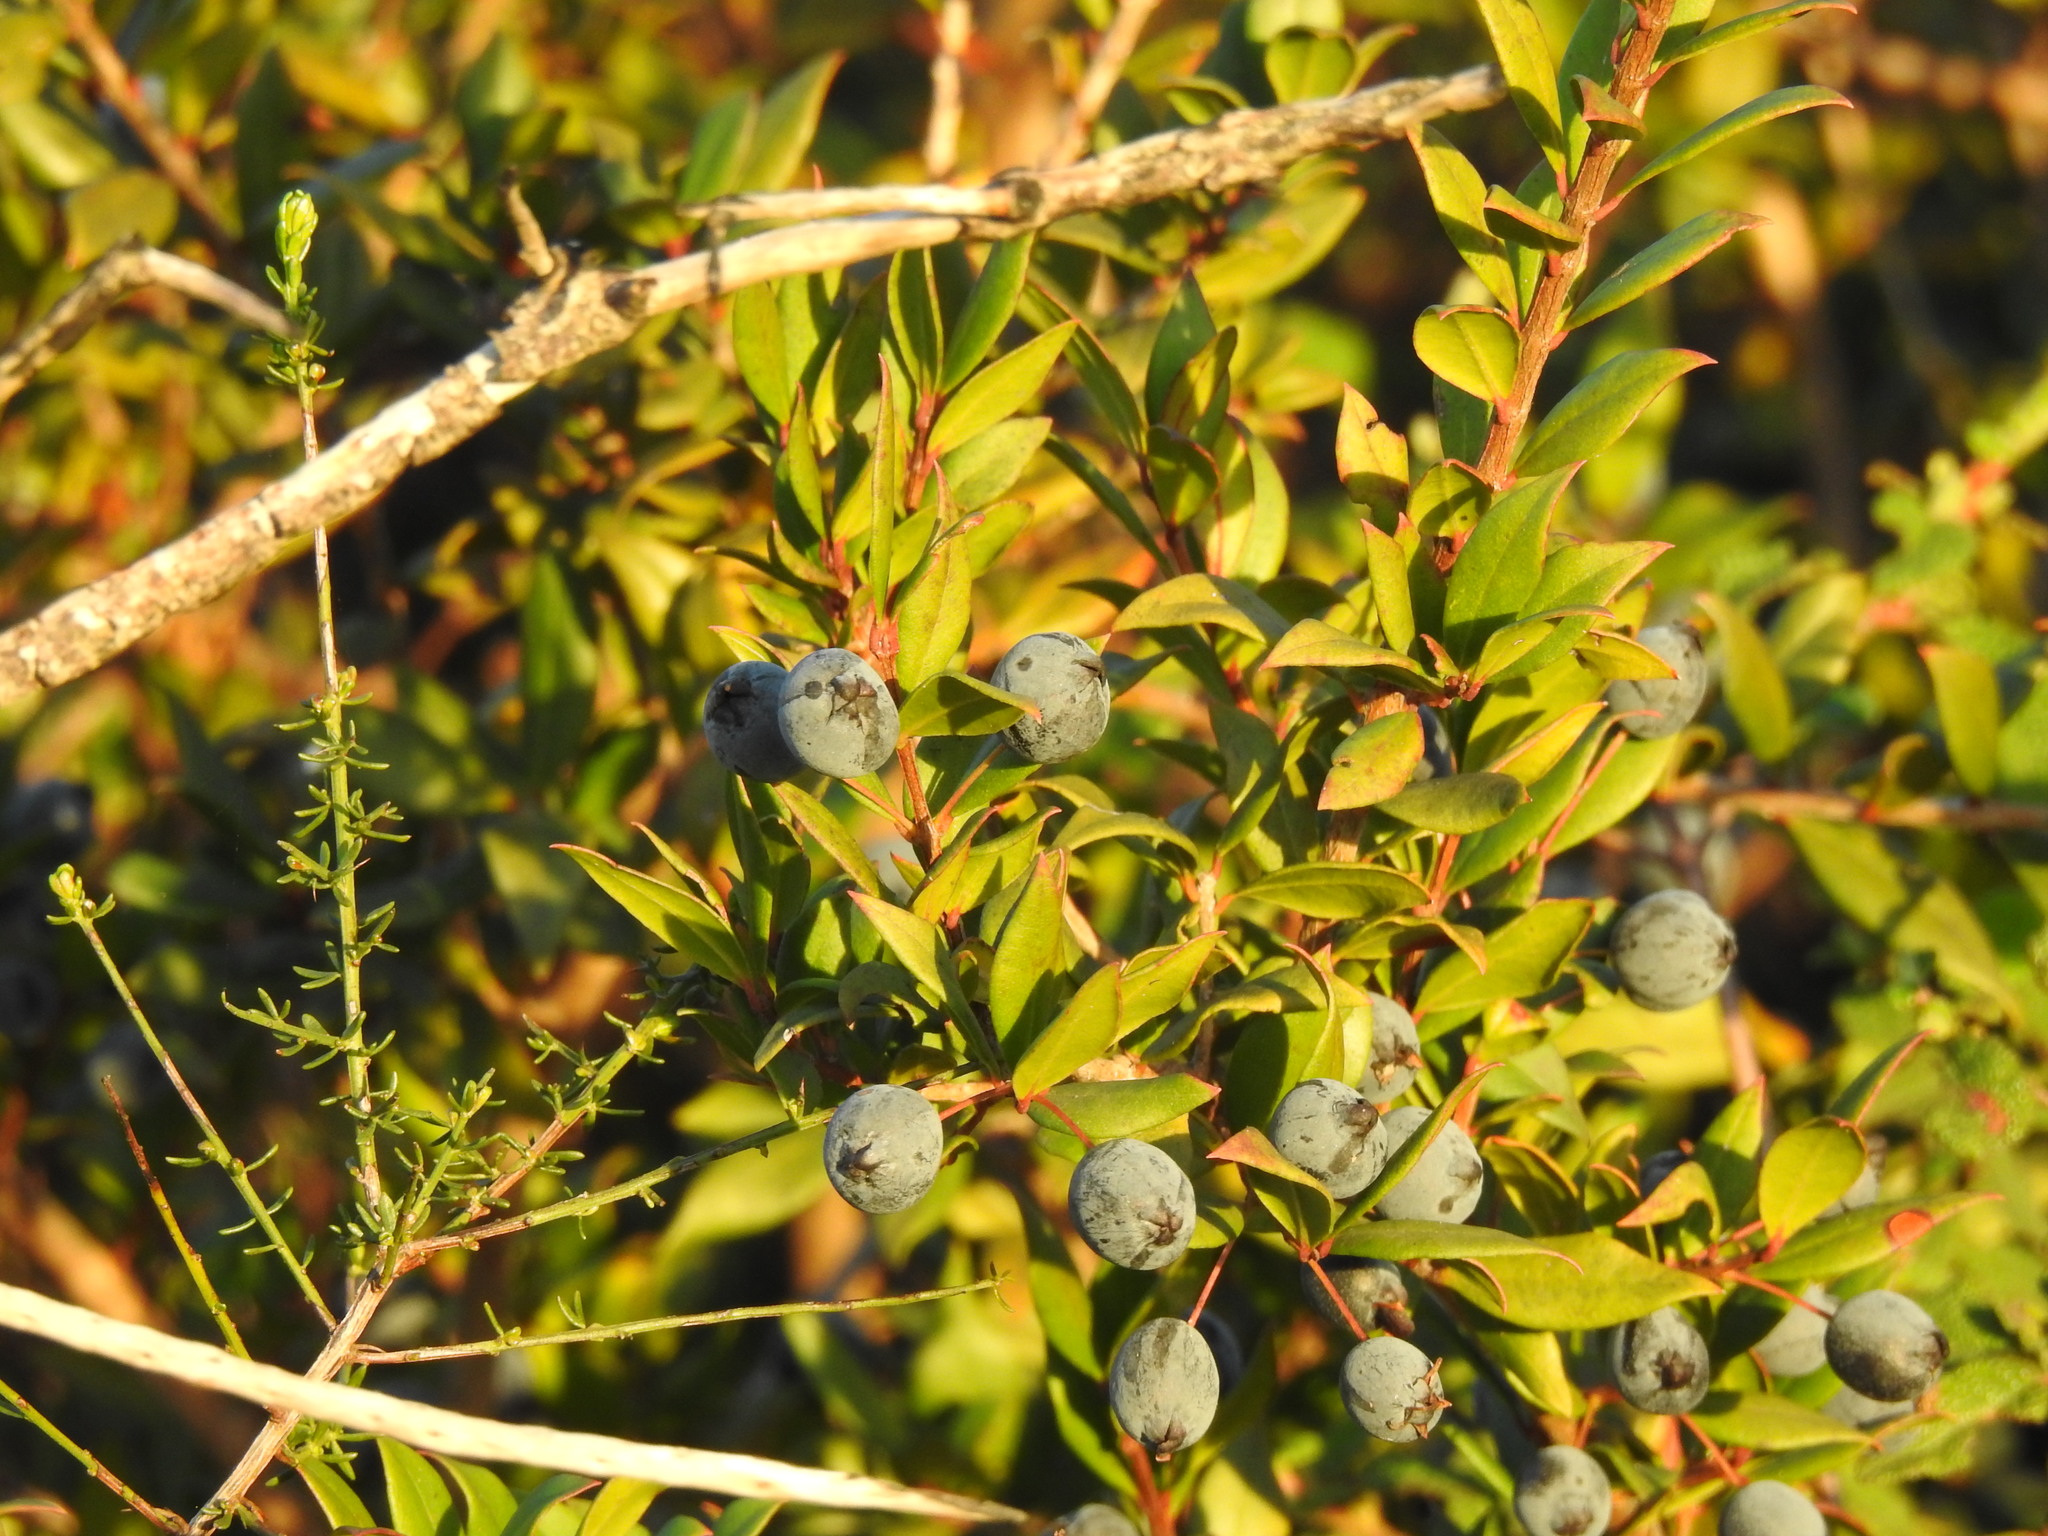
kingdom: Plantae
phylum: Tracheophyta
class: Magnoliopsida
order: Myrtales
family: Myrtaceae
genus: Myrtus
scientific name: Myrtus communis
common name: Myrtle
